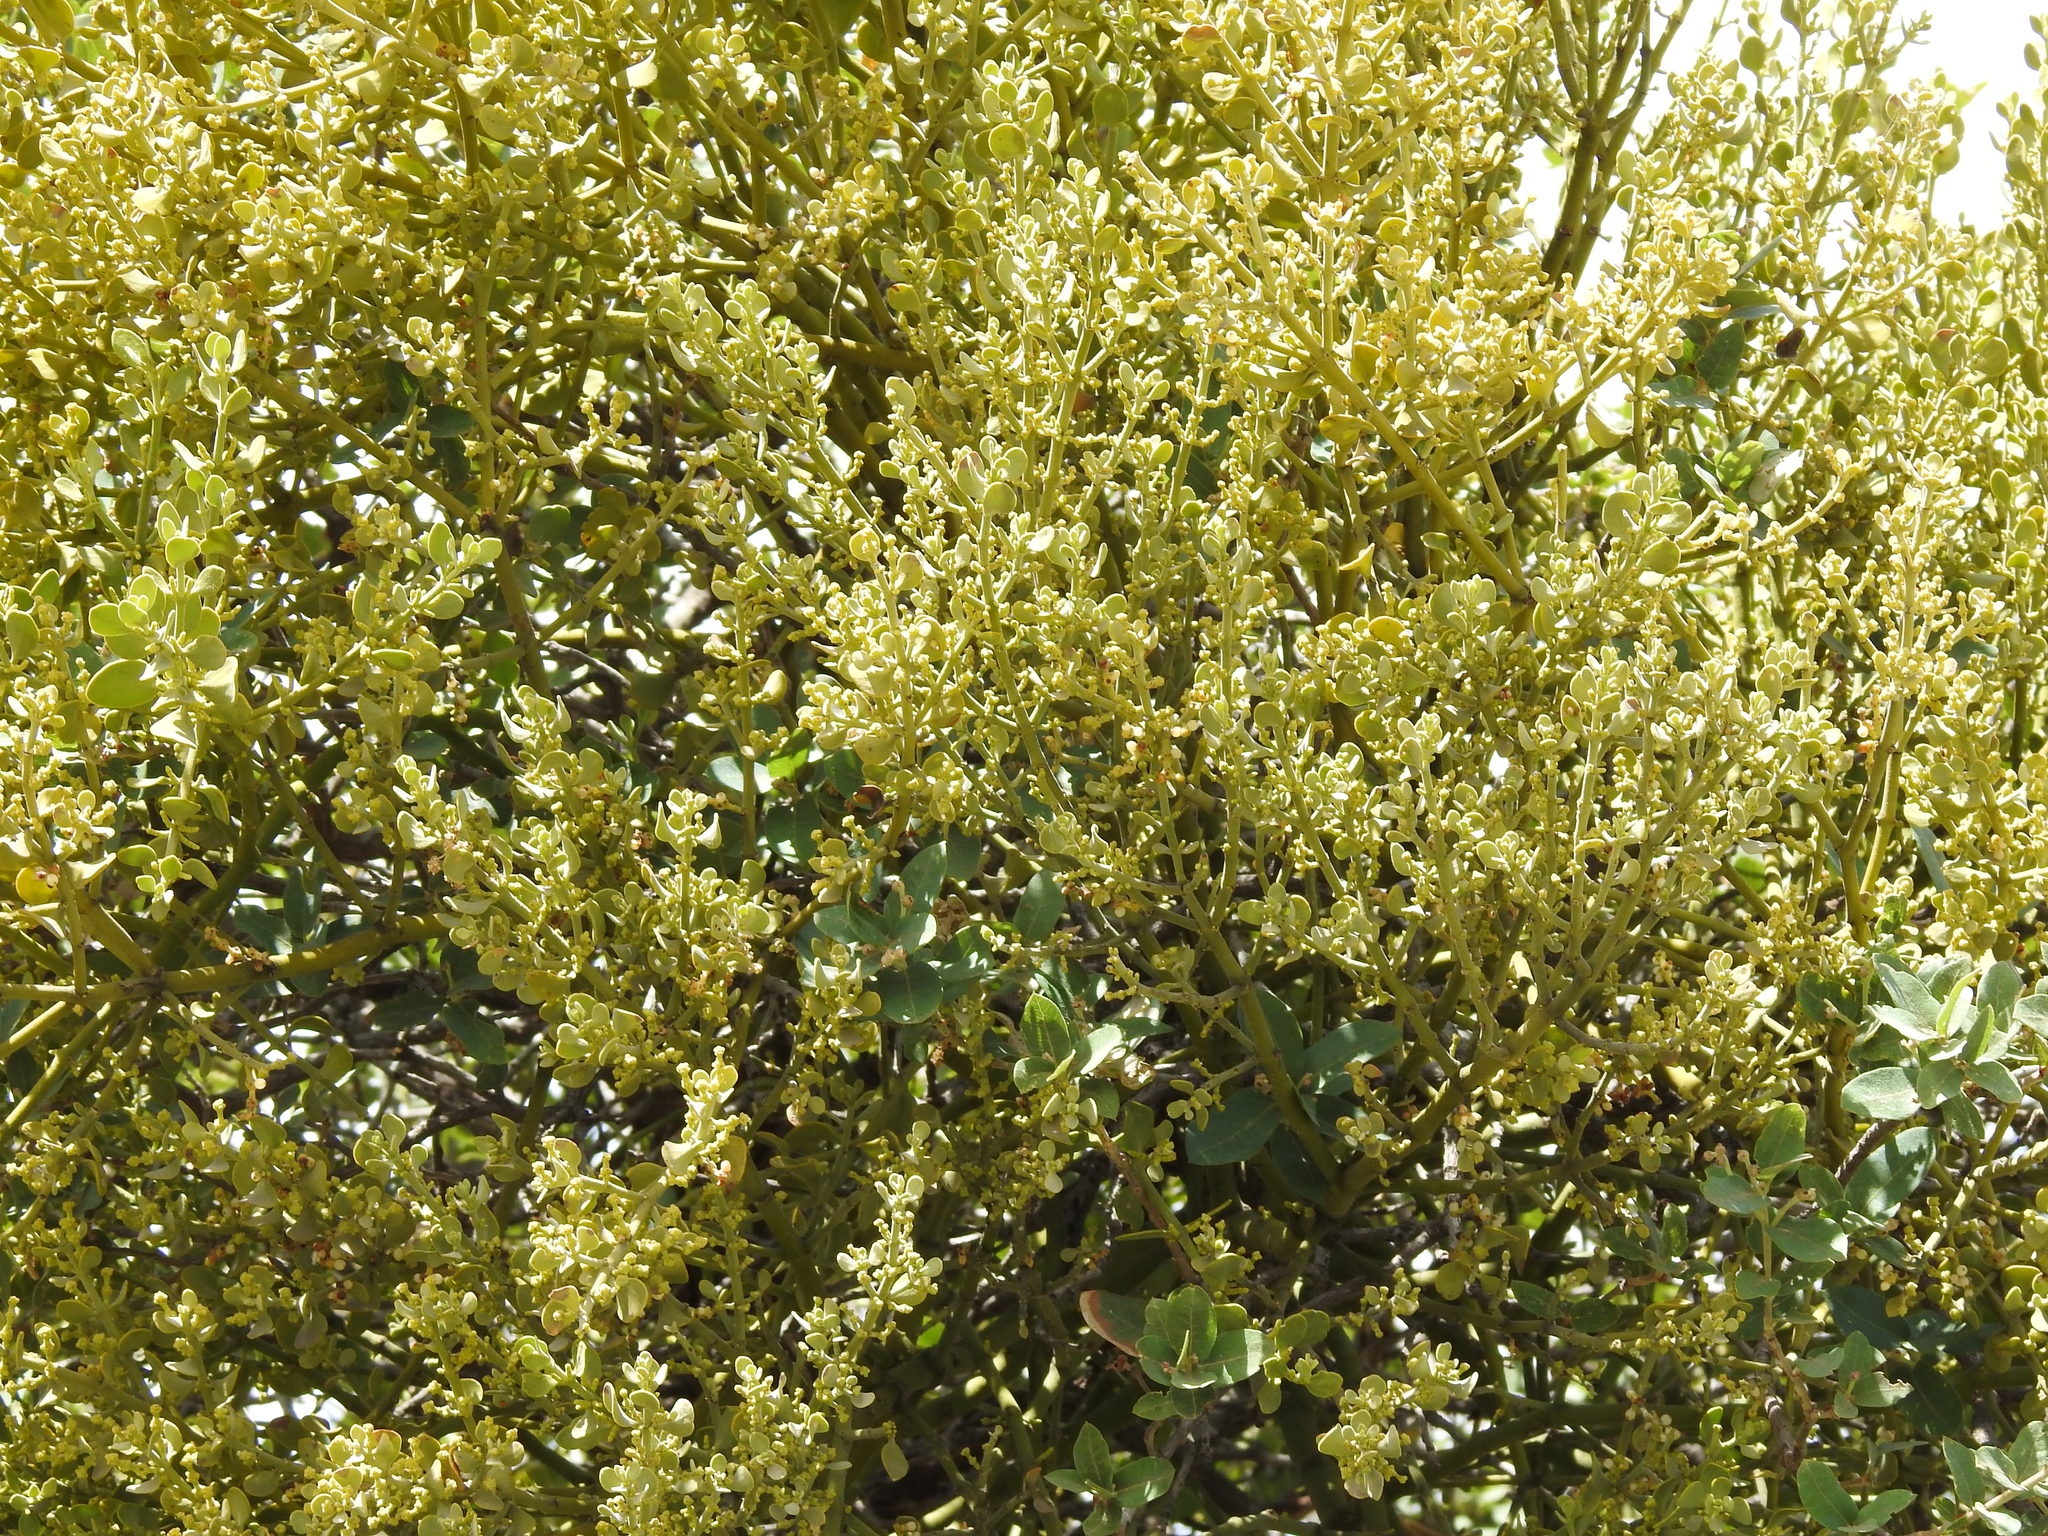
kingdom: Plantae
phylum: Tracheophyta
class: Magnoliopsida
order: Santalales
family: Viscaceae
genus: Phoradendron
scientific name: Phoradendron coryae
